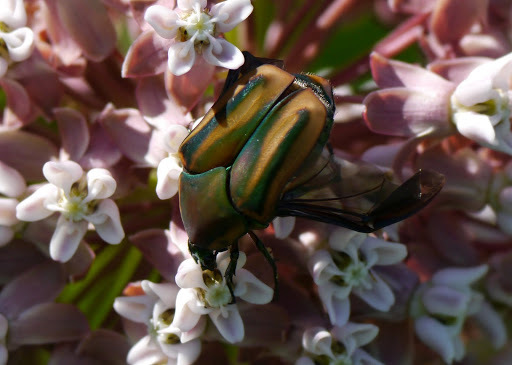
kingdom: Animalia
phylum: Arthropoda
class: Insecta
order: Coleoptera
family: Scarabaeidae
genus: Cotinis
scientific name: Cotinis nitida
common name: Common green june beetle
